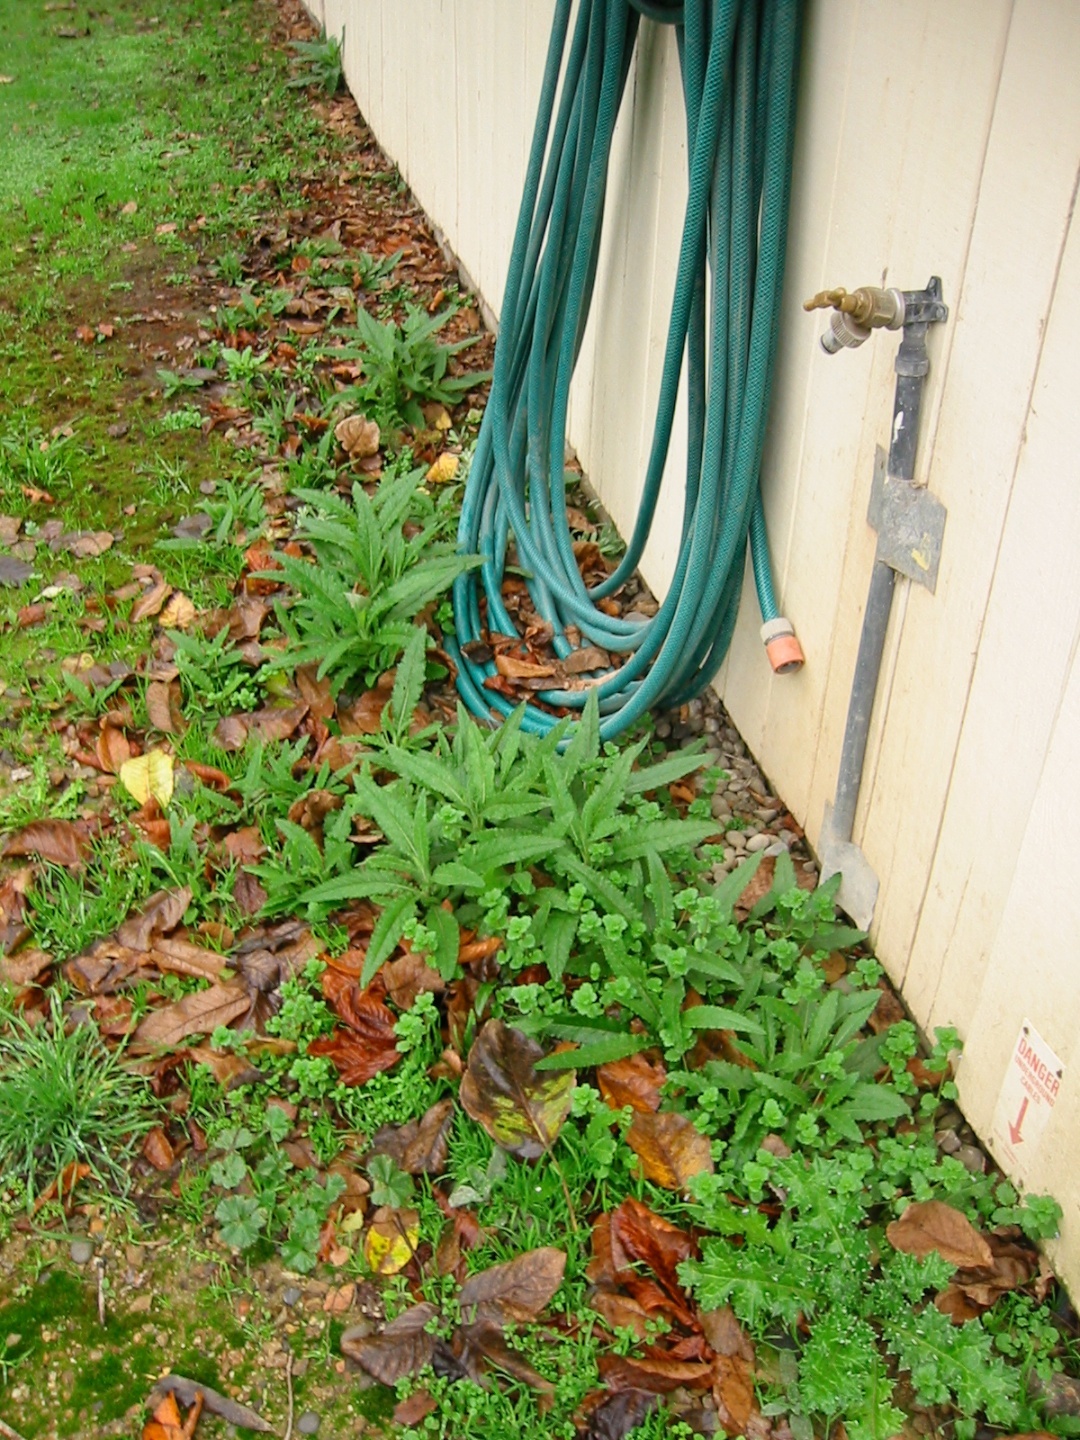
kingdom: Plantae
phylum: Tracheophyta
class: Magnoliopsida
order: Asterales
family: Asteraceae
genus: Senecio
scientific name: Senecio minimus
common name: Toothed fireweed
